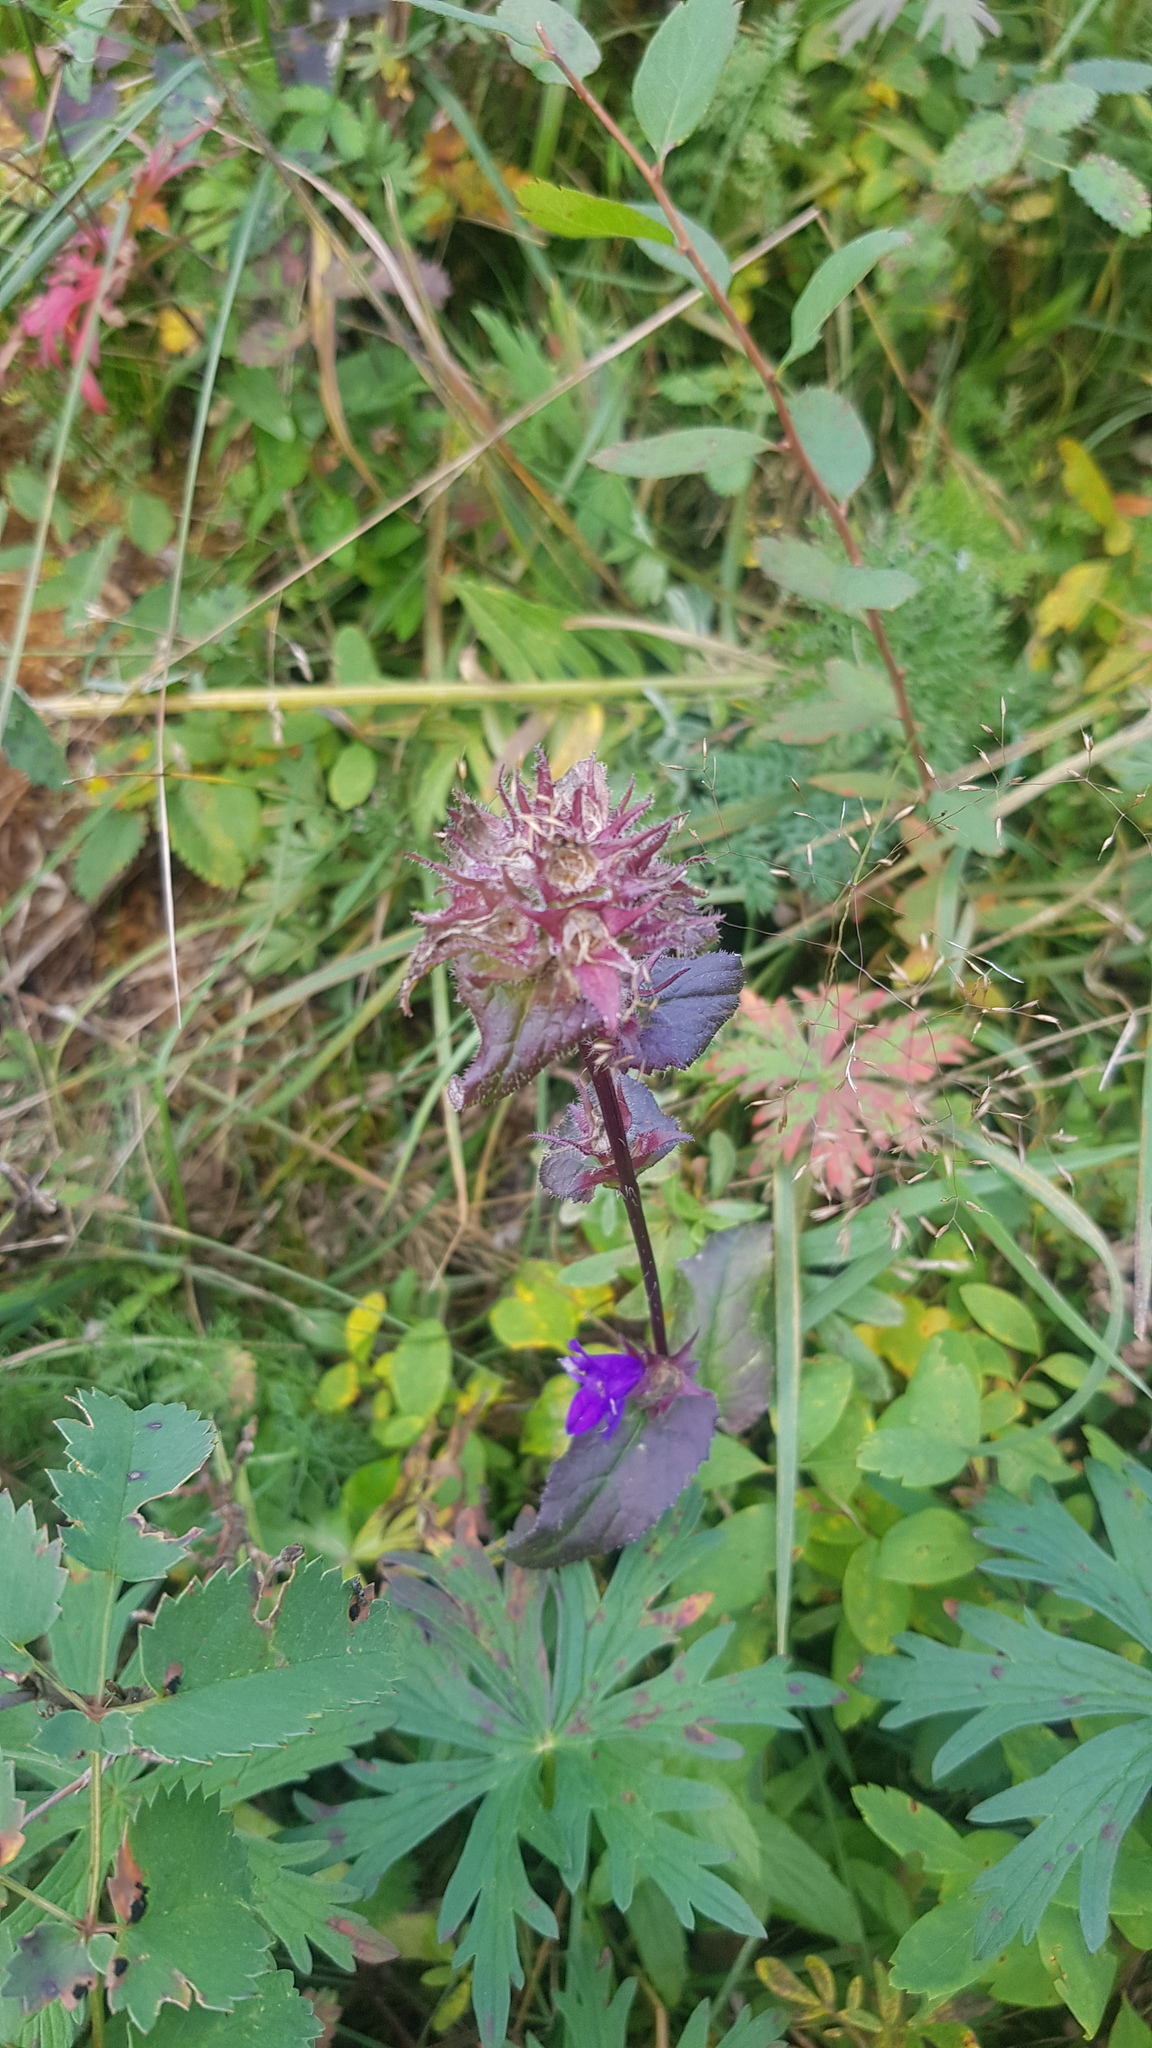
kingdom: Plantae
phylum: Tracheophyta
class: Magnoliopsida
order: Asterales
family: Campanulaceae
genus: Campanula
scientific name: Campanula glomerata
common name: Clustered bellflower
